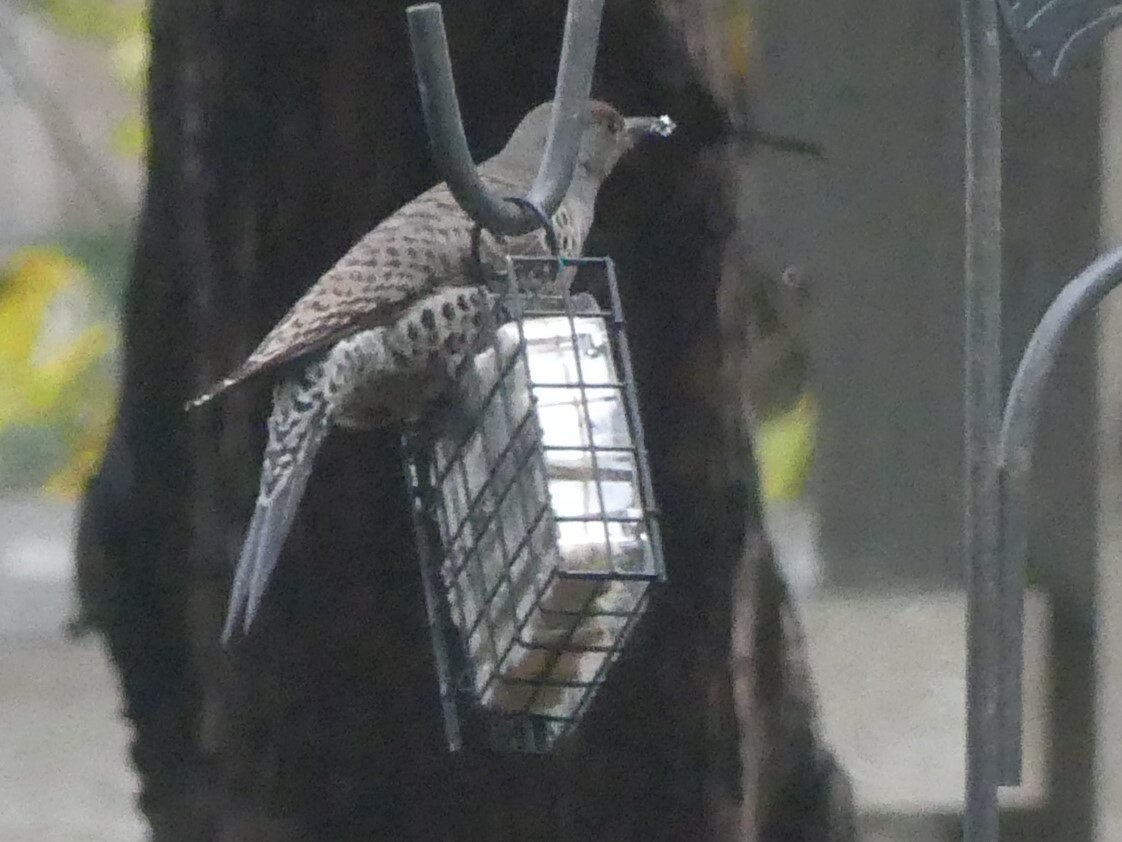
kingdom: Animalia
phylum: Chordata
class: Aves
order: Piciformes
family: Picidae
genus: Colaptes
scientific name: Colaptes auratus
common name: Northern flicker
